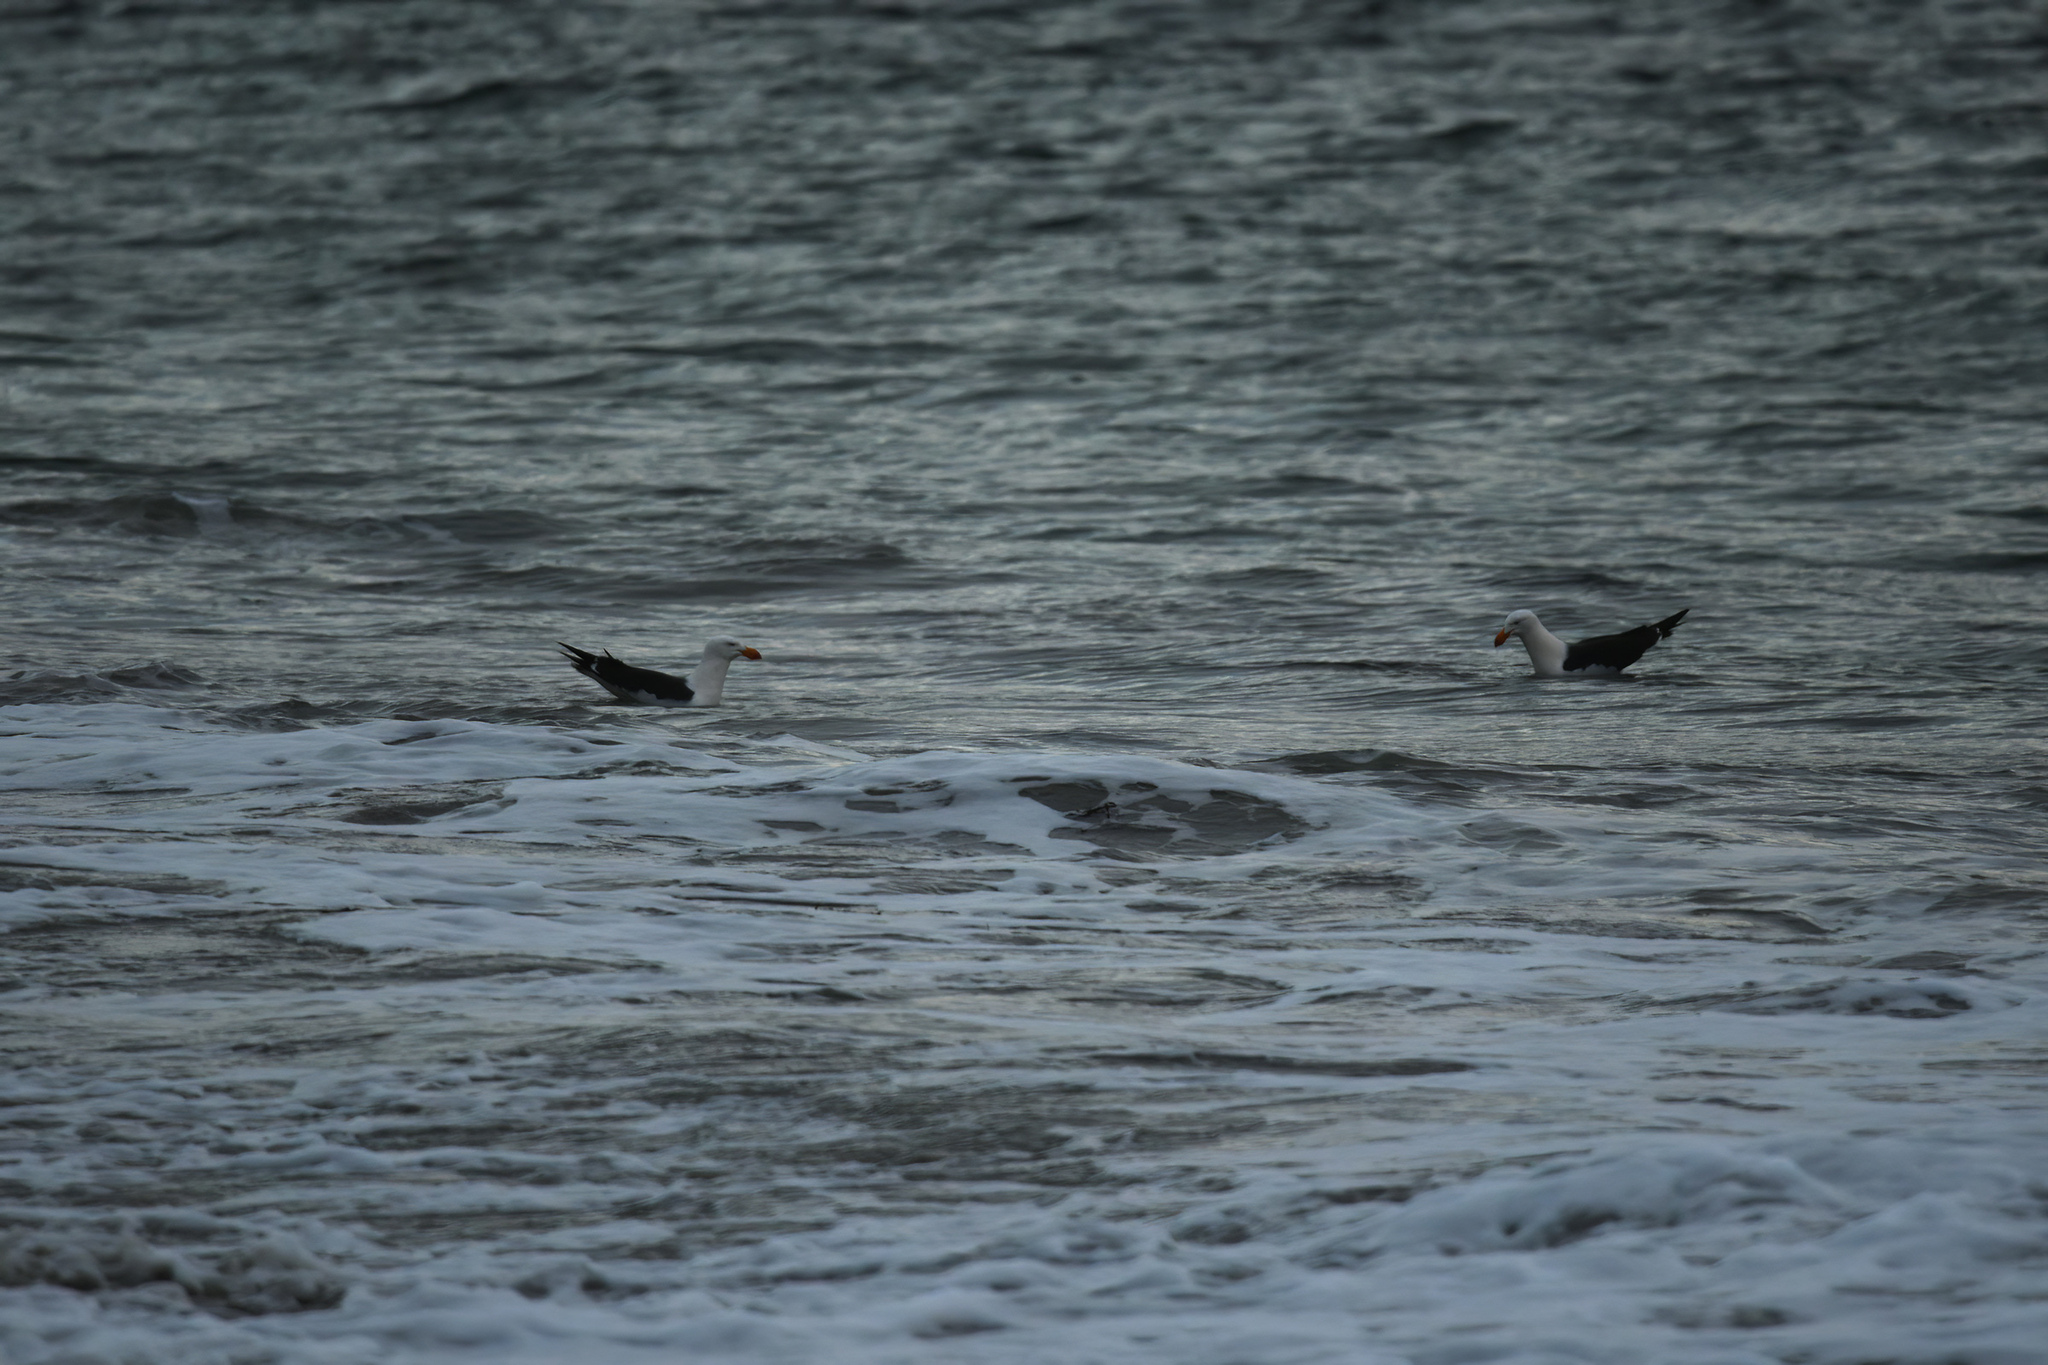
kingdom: Animalia
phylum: Chordata
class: Aves
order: Charadriiformes
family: Laridae
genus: Larus
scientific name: Larus pacificus
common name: Pacific gull
